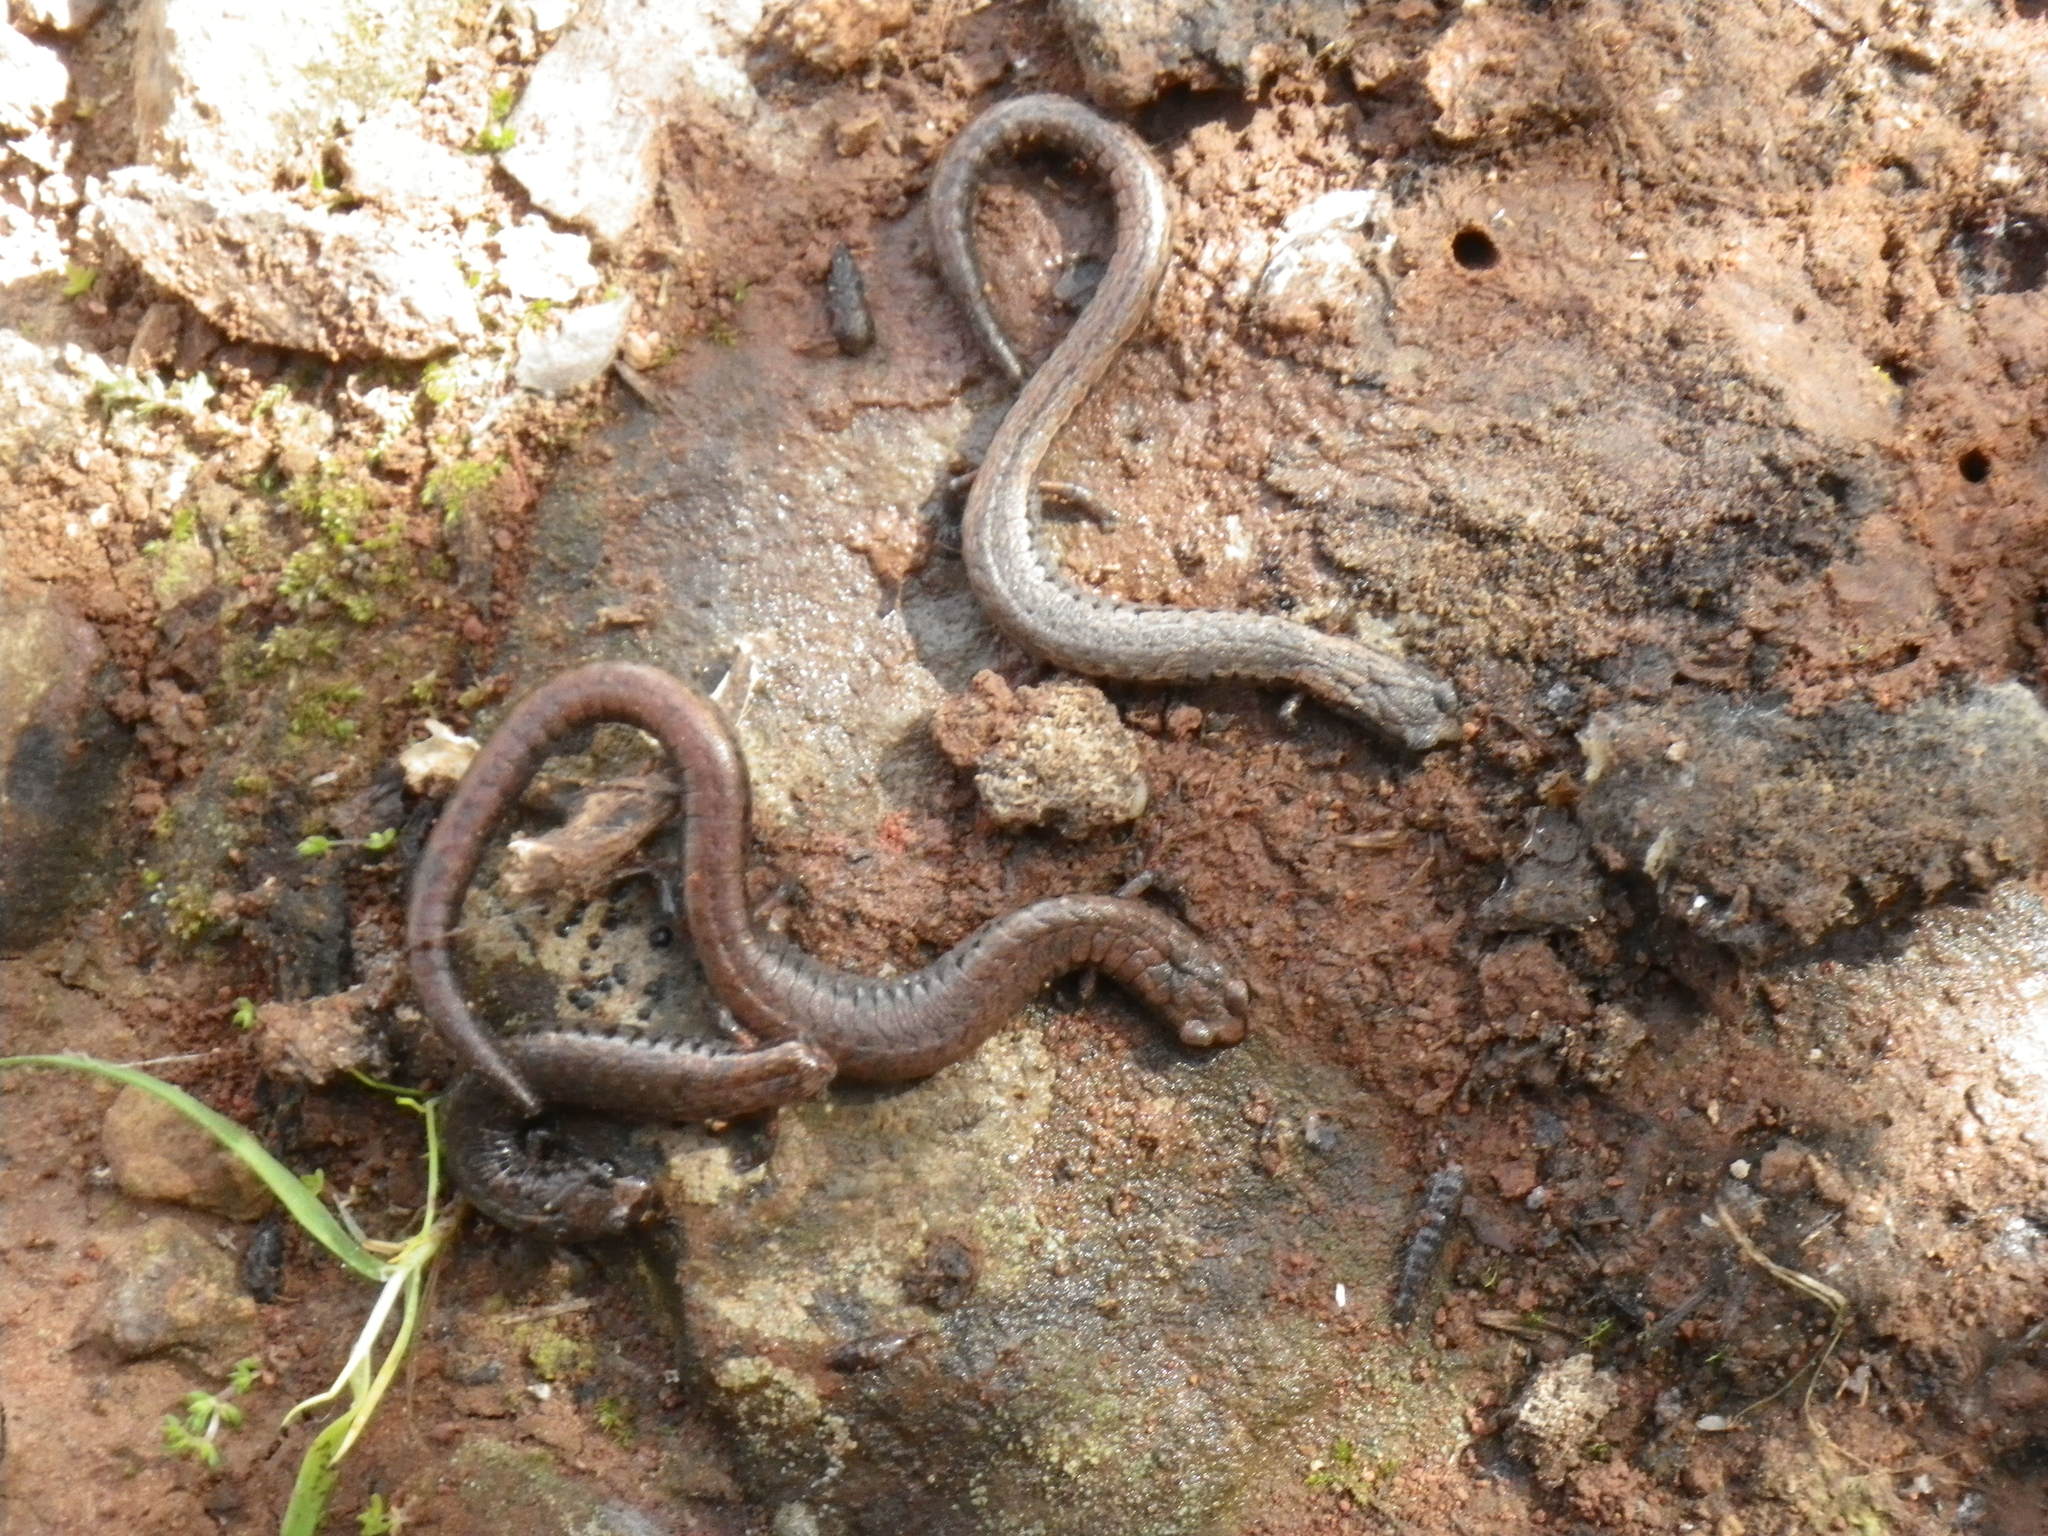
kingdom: Animalia
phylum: Chordata
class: Amphibia
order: Caudata
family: Plethodontidae
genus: Batrachoseps
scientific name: Batrachoseps attenuatus
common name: California slender salamander
